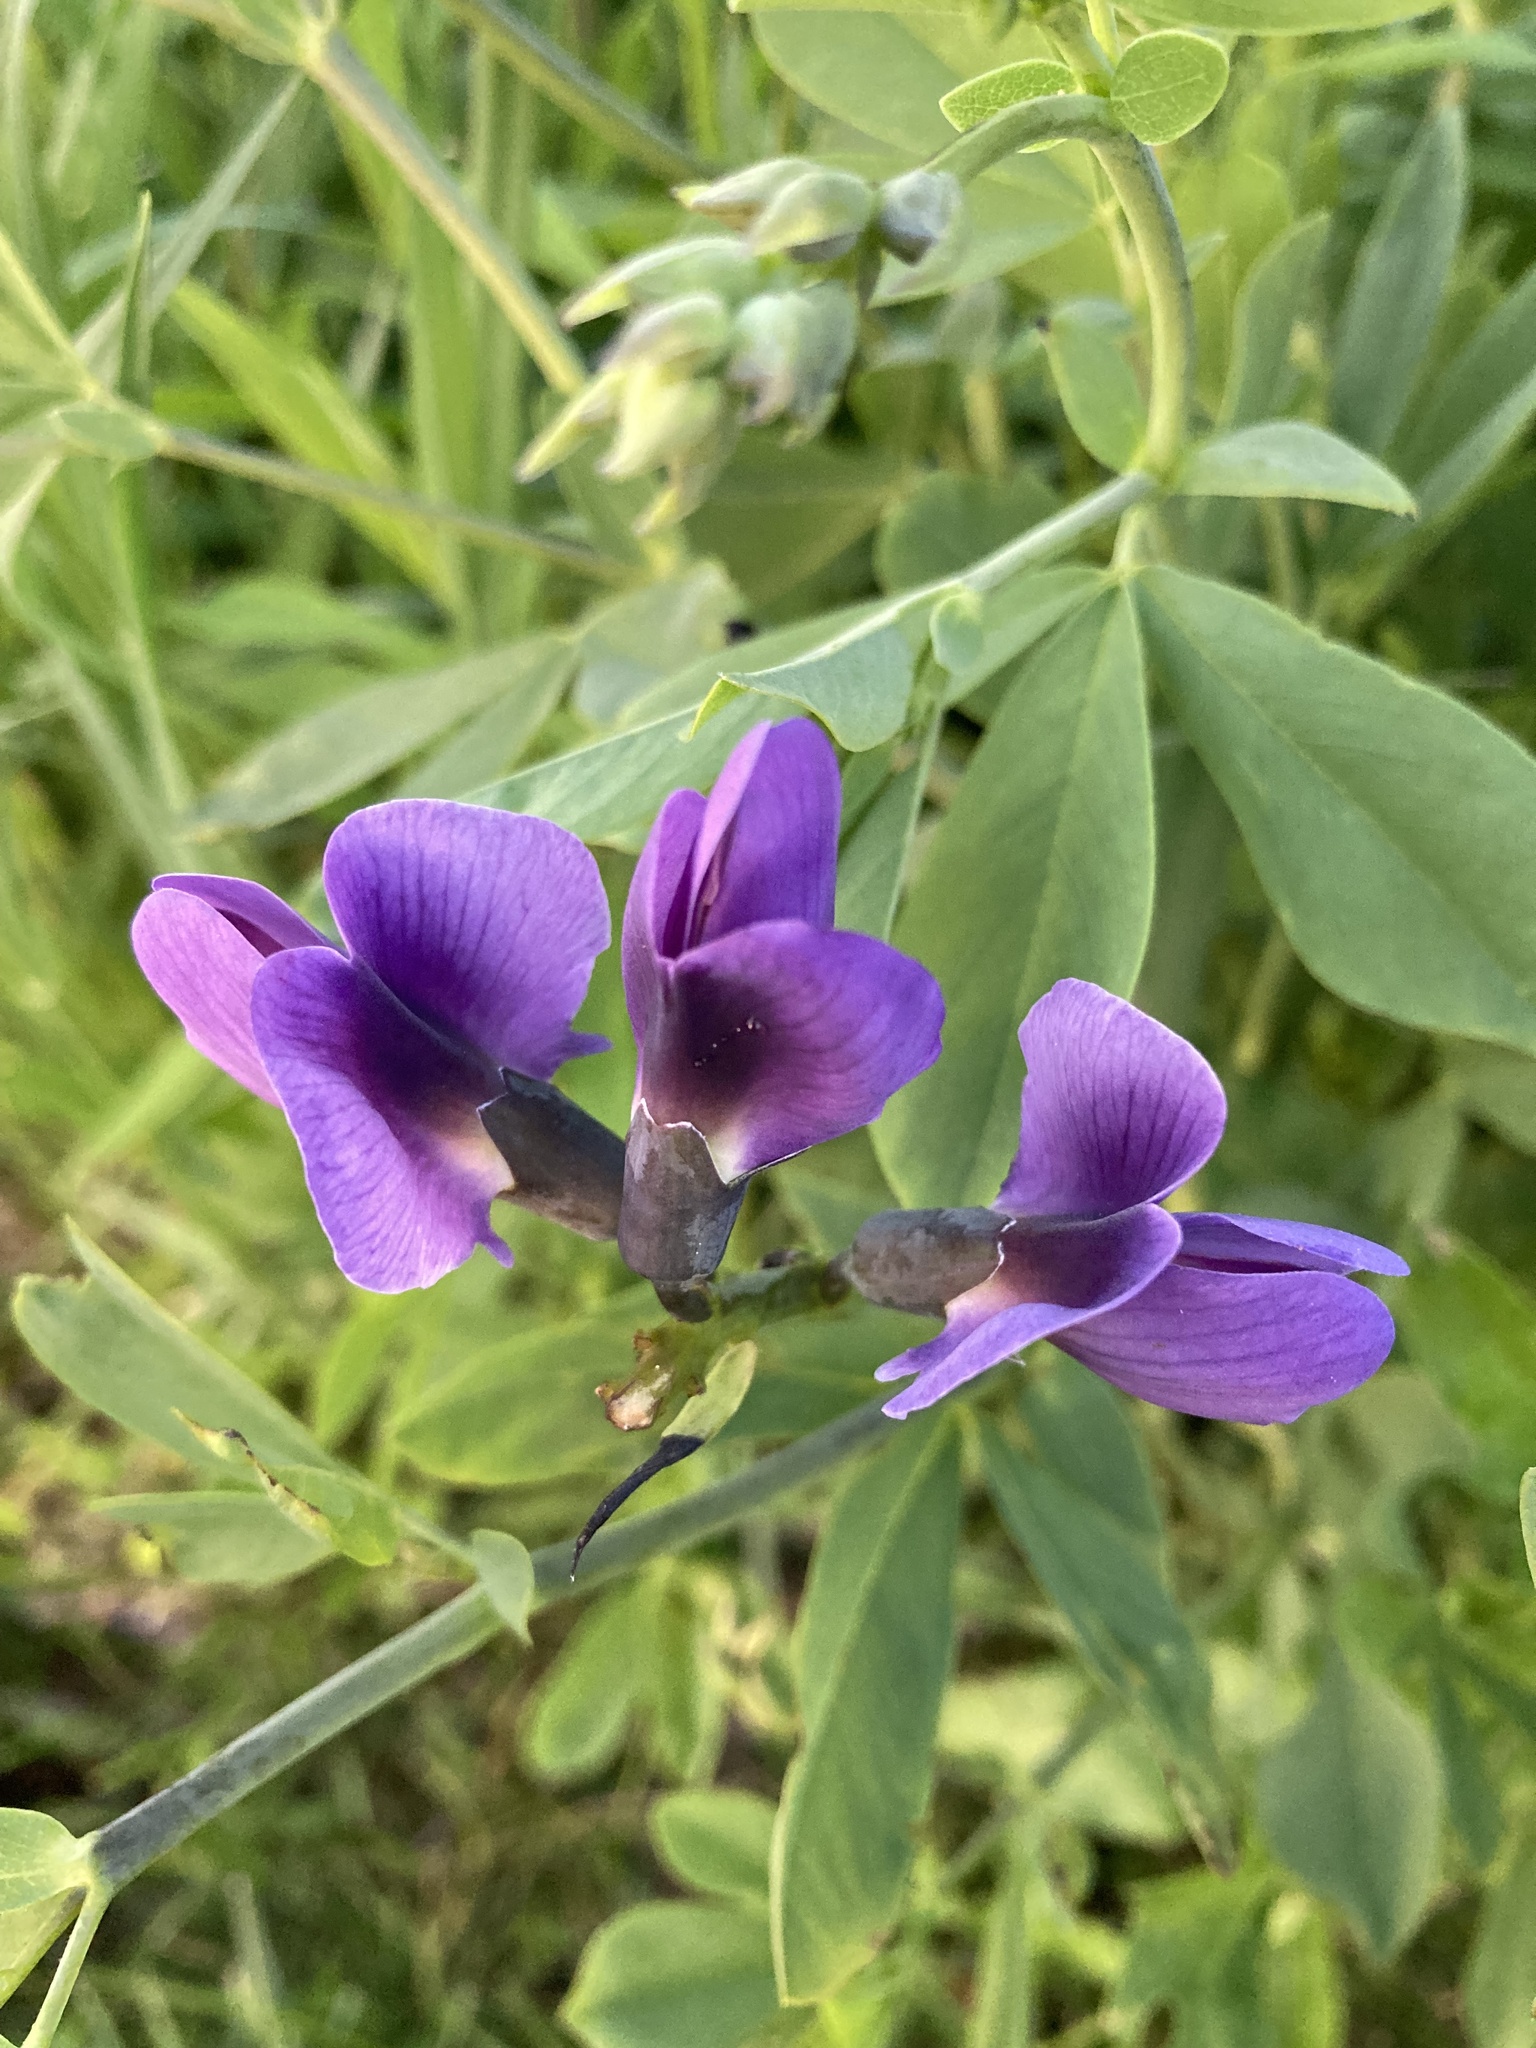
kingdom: Plantae
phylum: Tracheophyta
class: Magnoliopsida
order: Fabales
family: Fabaceae
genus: Baptisia
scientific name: Baptisia australis
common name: Blue false indigo
